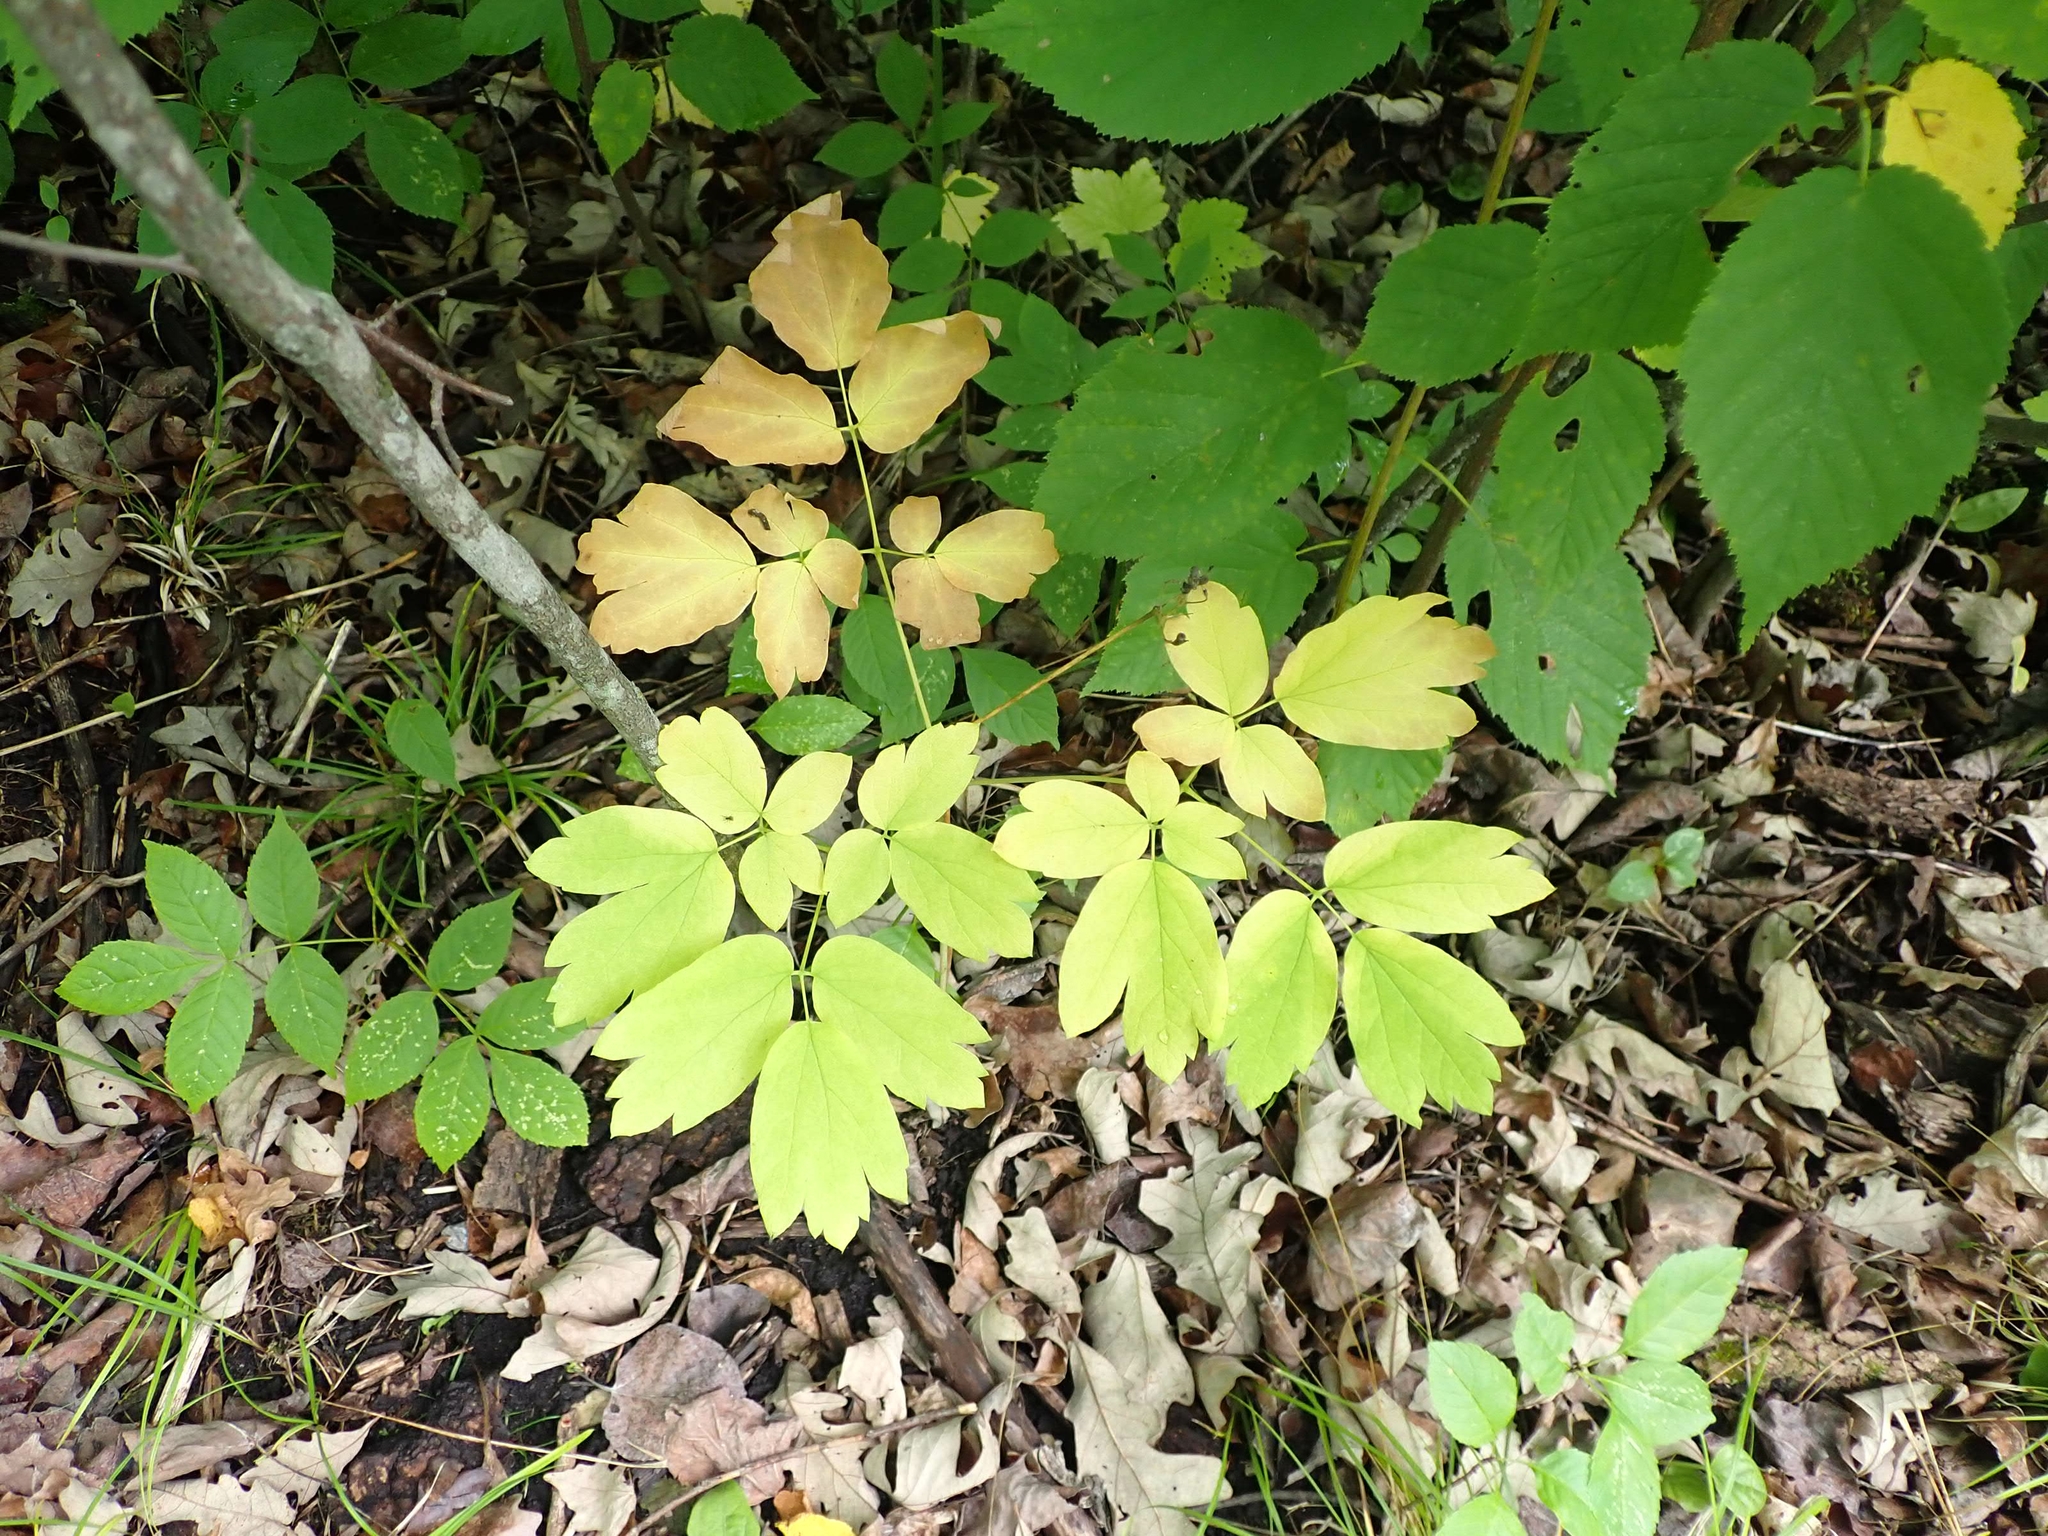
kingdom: Plantae
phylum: Tracheophyta
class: Magnoliopsida
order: Ranunculales
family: Berberidaceae
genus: Caulophyllum
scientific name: Caulophyllum thalictroides
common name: Blue cohosh
